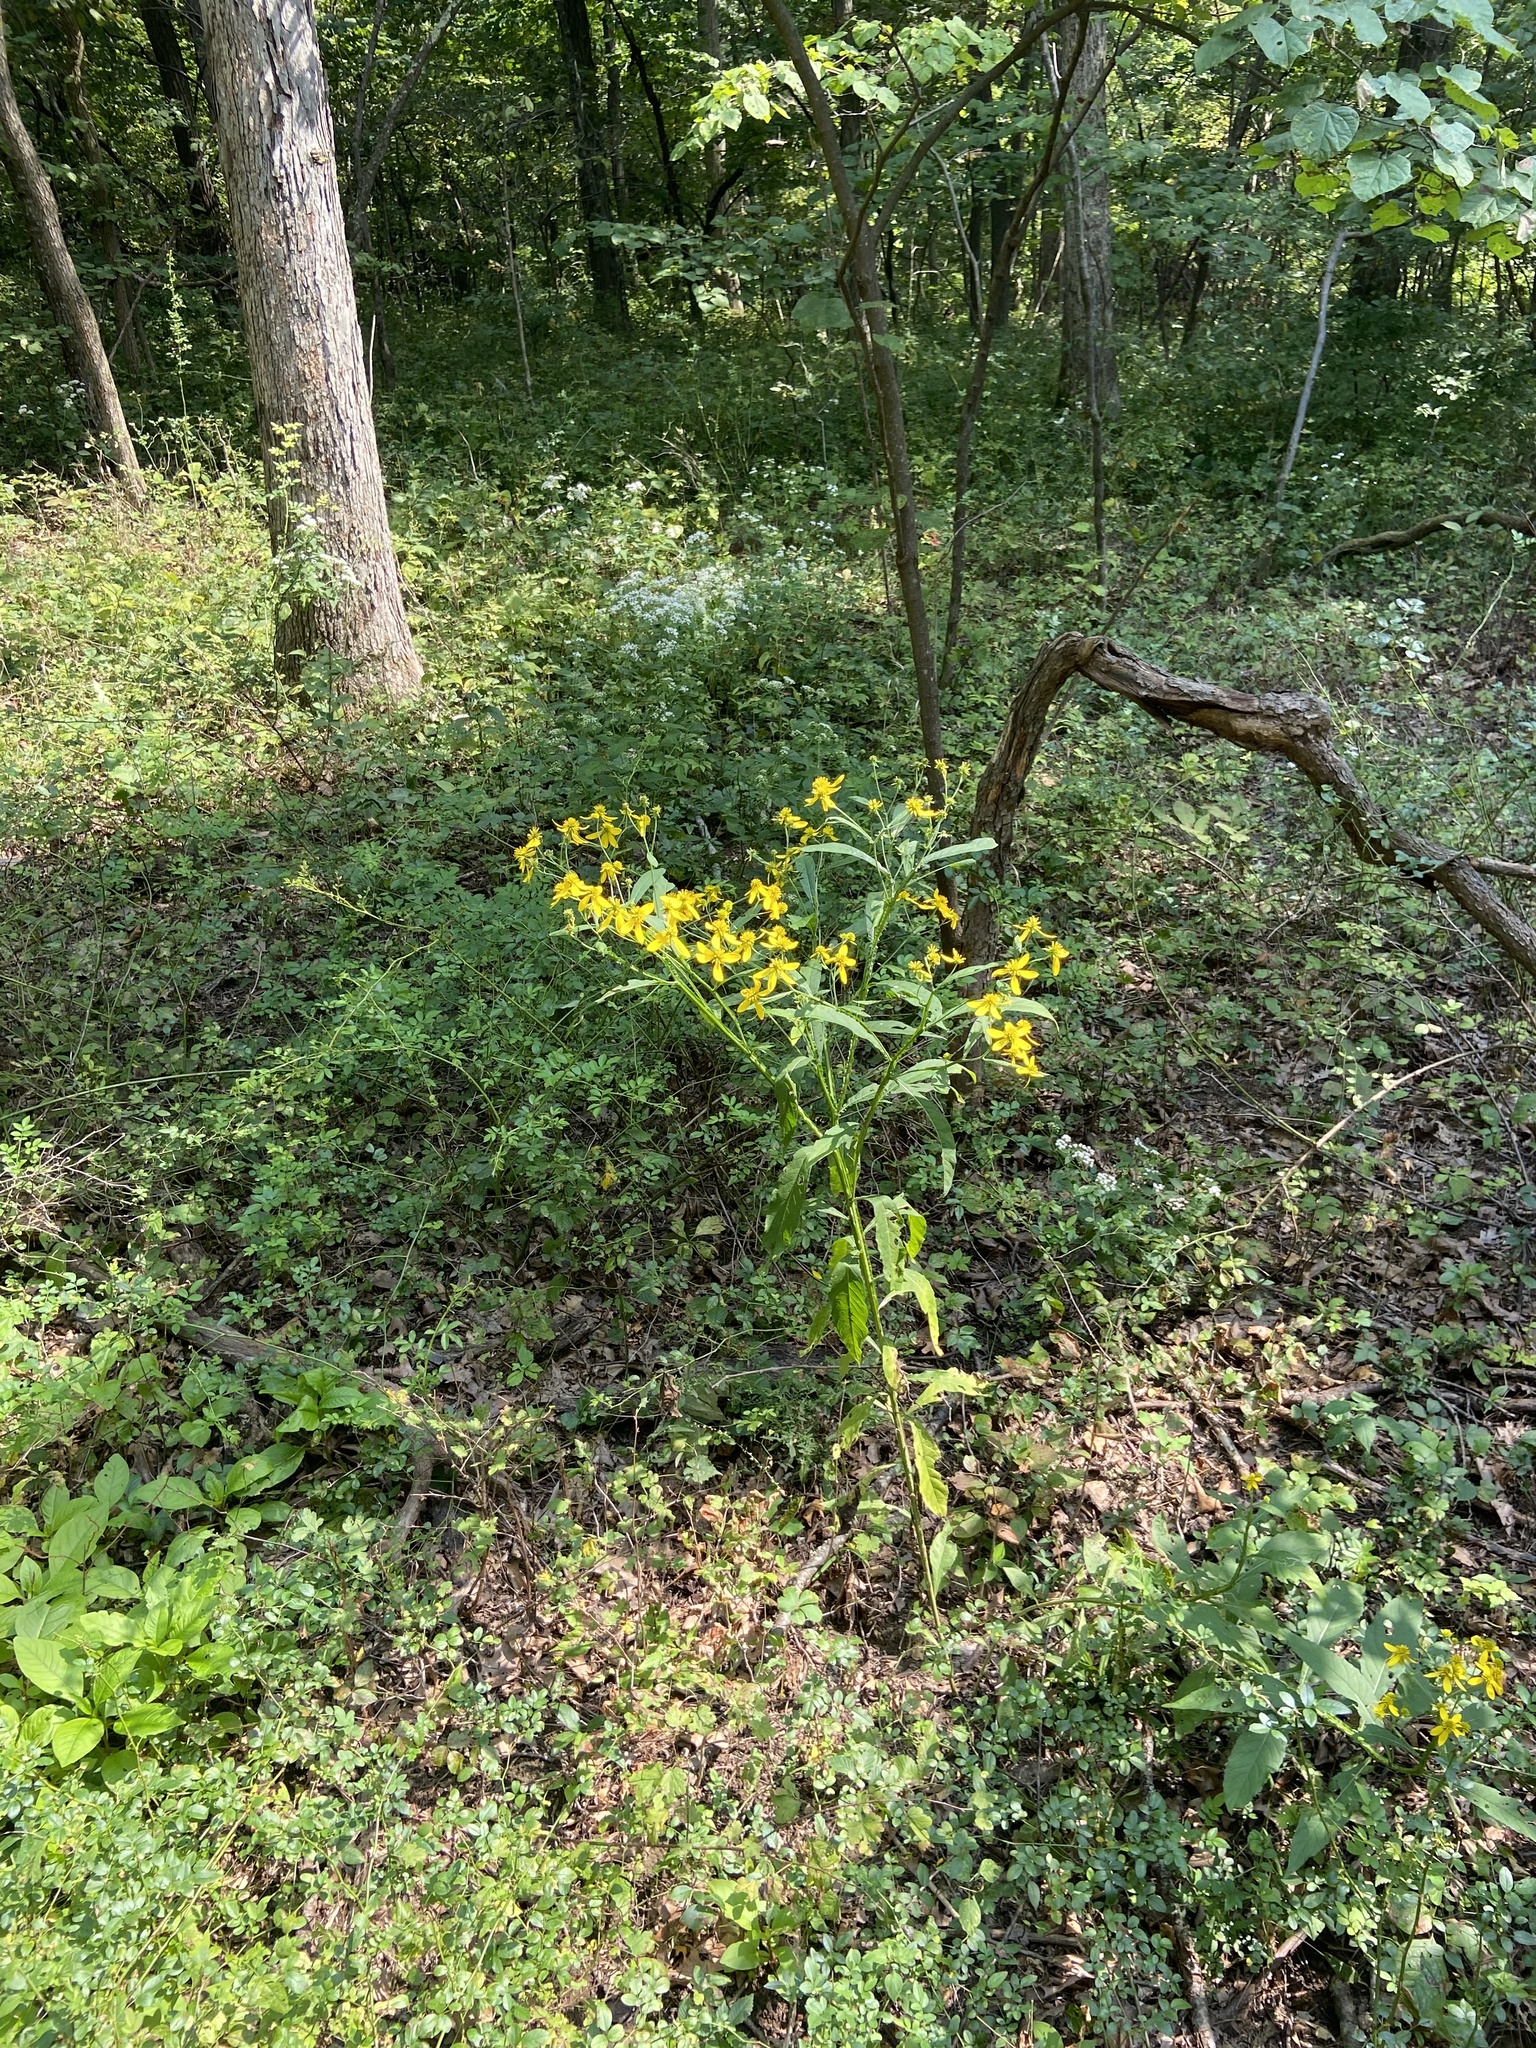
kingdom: Plantae
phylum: Tracheophyta
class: Magnoliopsida
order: Asterales
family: Asteraceae
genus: Verbesina
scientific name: Verbesina alternifolia
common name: Wingstem
